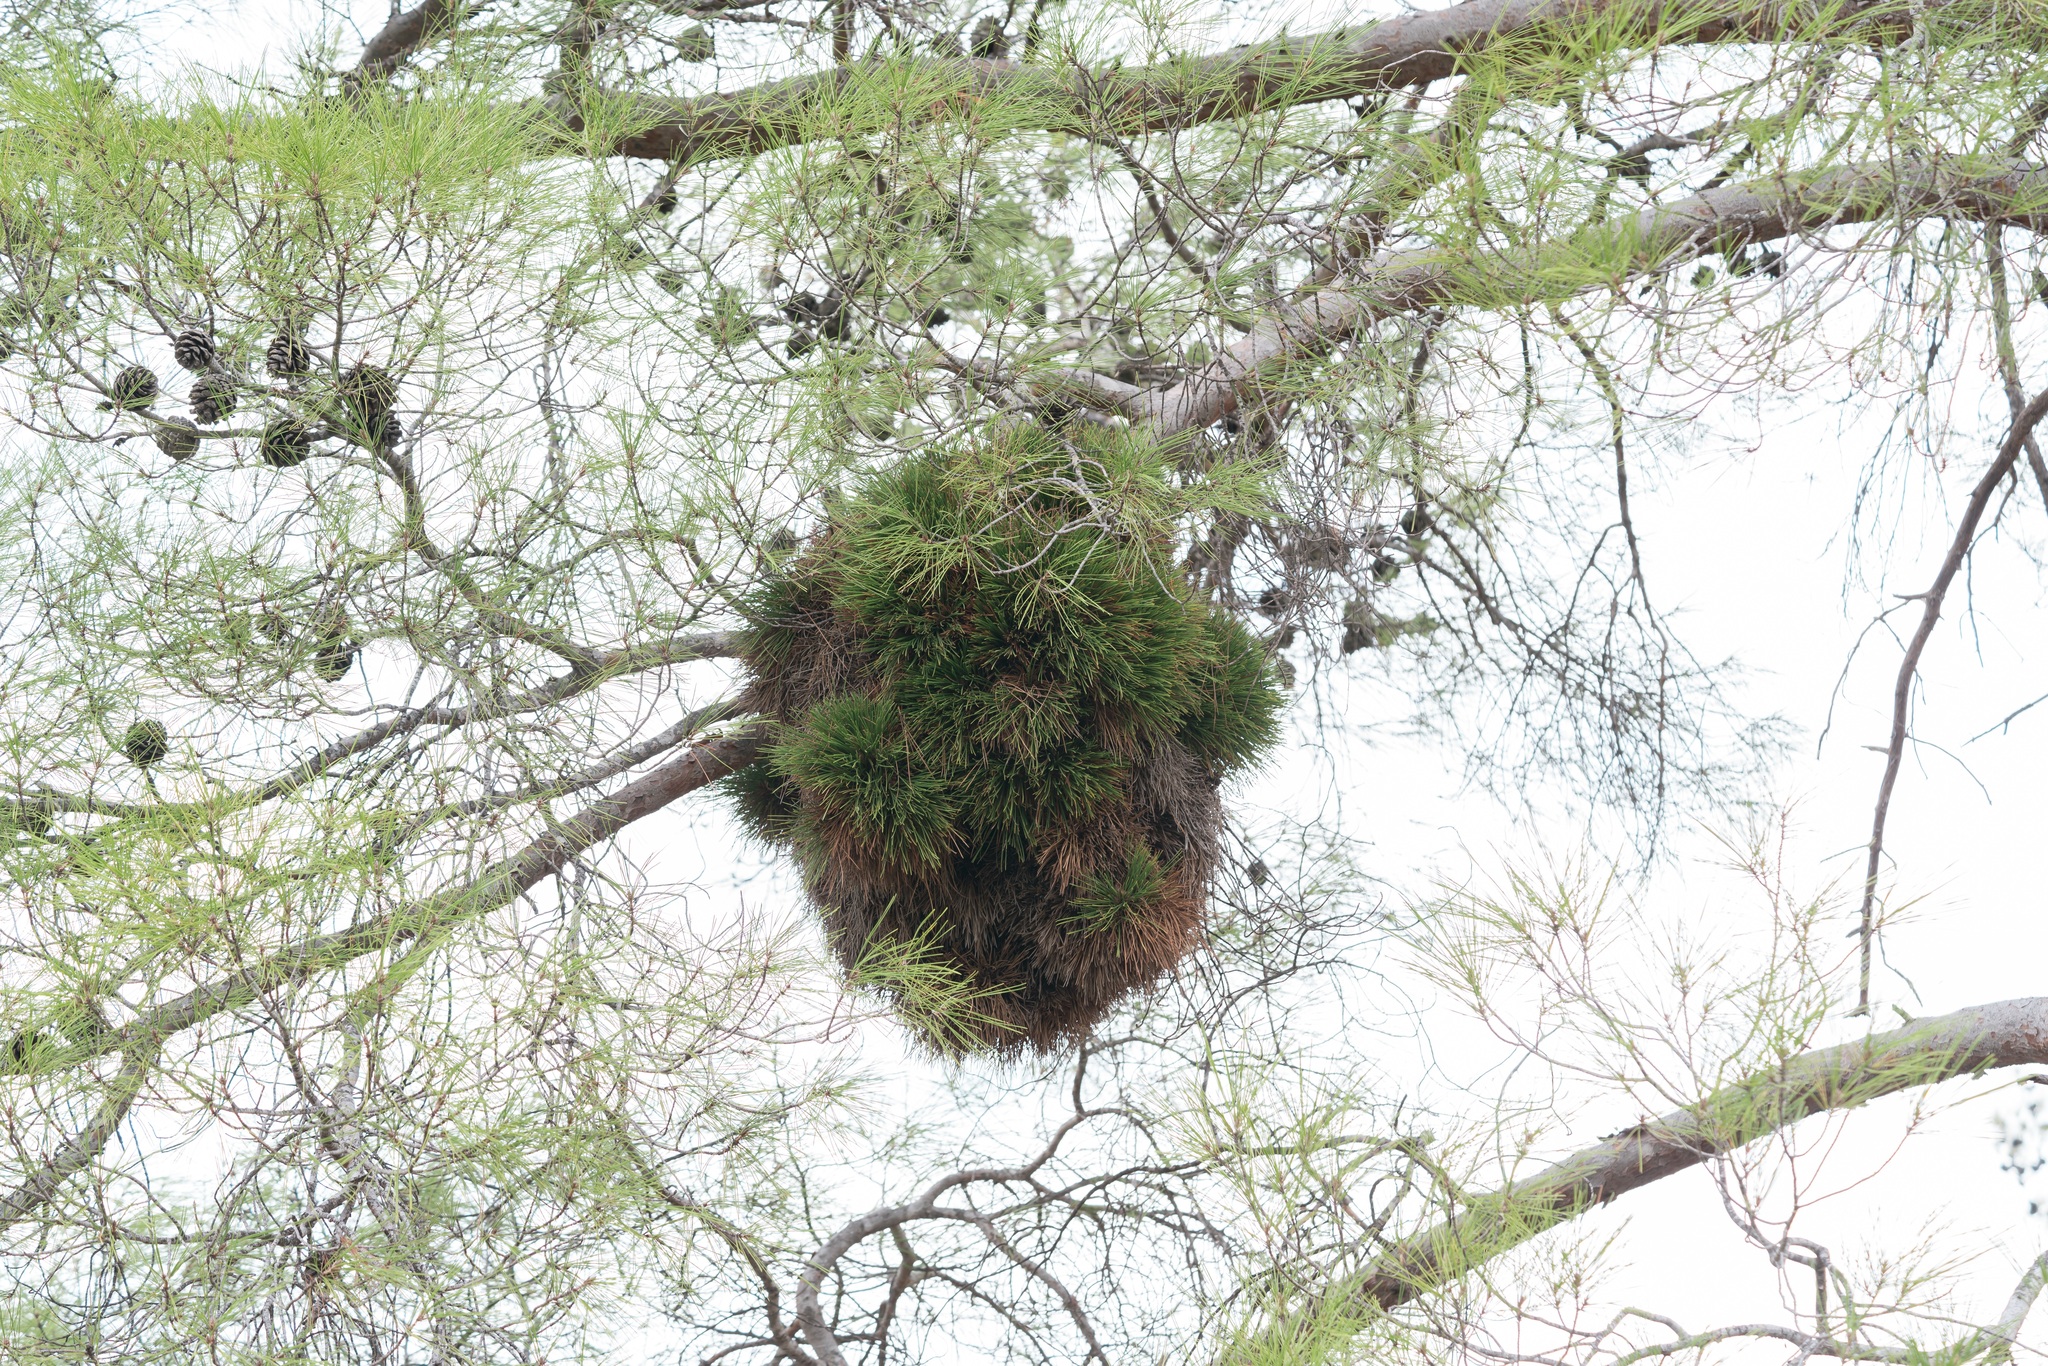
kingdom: Bacteria
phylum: Firmicutes
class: Bacilli
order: Acholeplasmatales
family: Acholeplasmataceae
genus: Phytoplasma
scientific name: Phytoplasma pini
